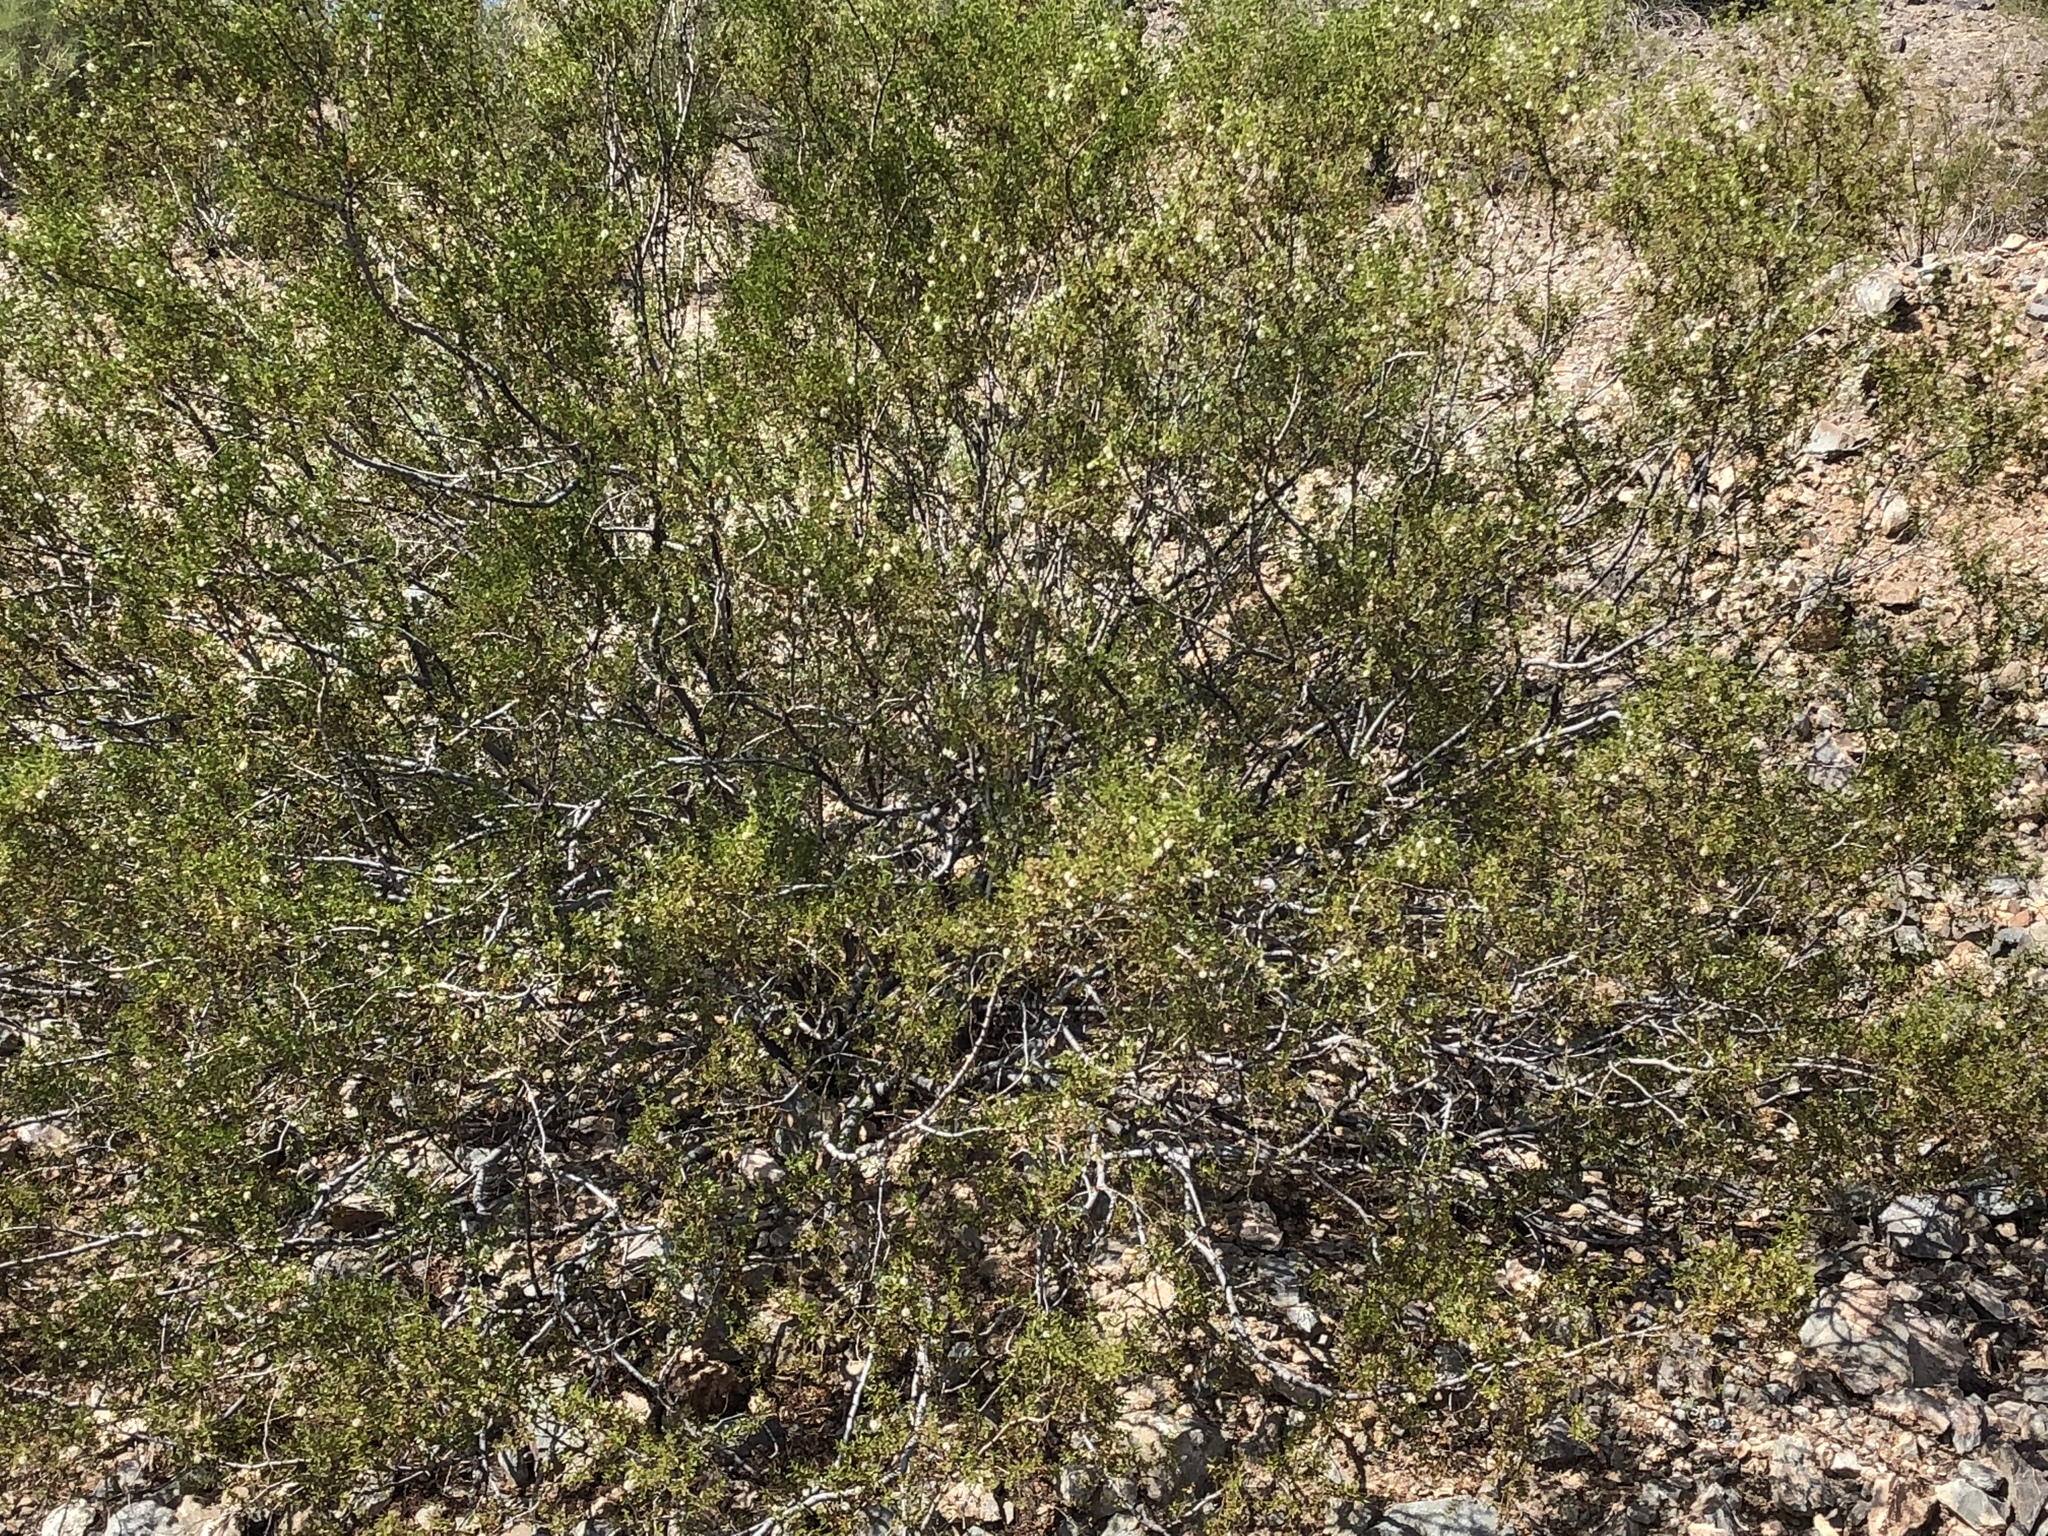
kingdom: Plantae
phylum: Tracheophyta
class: Magnoliopsida
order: Zygophyllales
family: Zygophyllaceae
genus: Larrea
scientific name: Larrea tridentata
